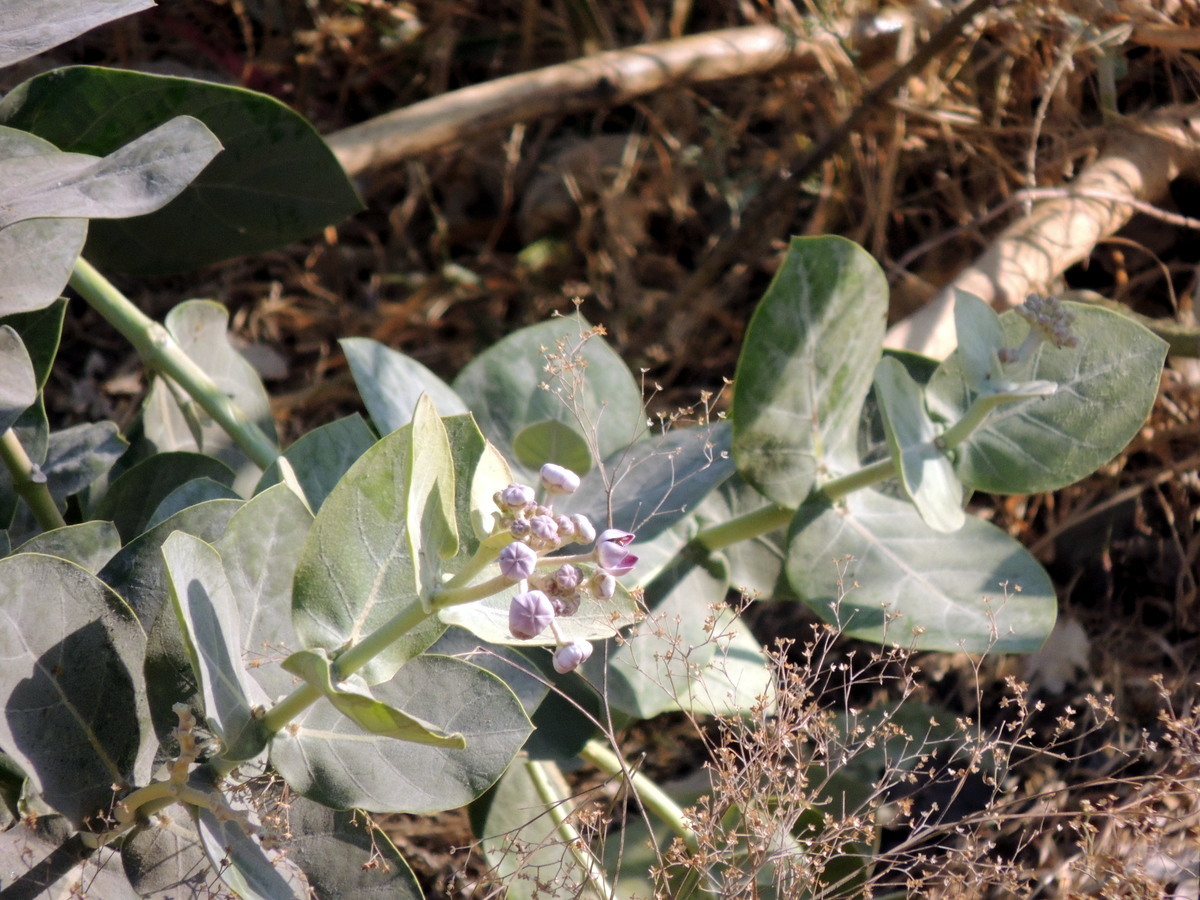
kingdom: Plantae
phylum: Tracheophyta
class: Magnoliopsida
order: Gentianales
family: Apocynaceae
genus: Calotropis
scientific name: Calotropis procera
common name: Roostertree
